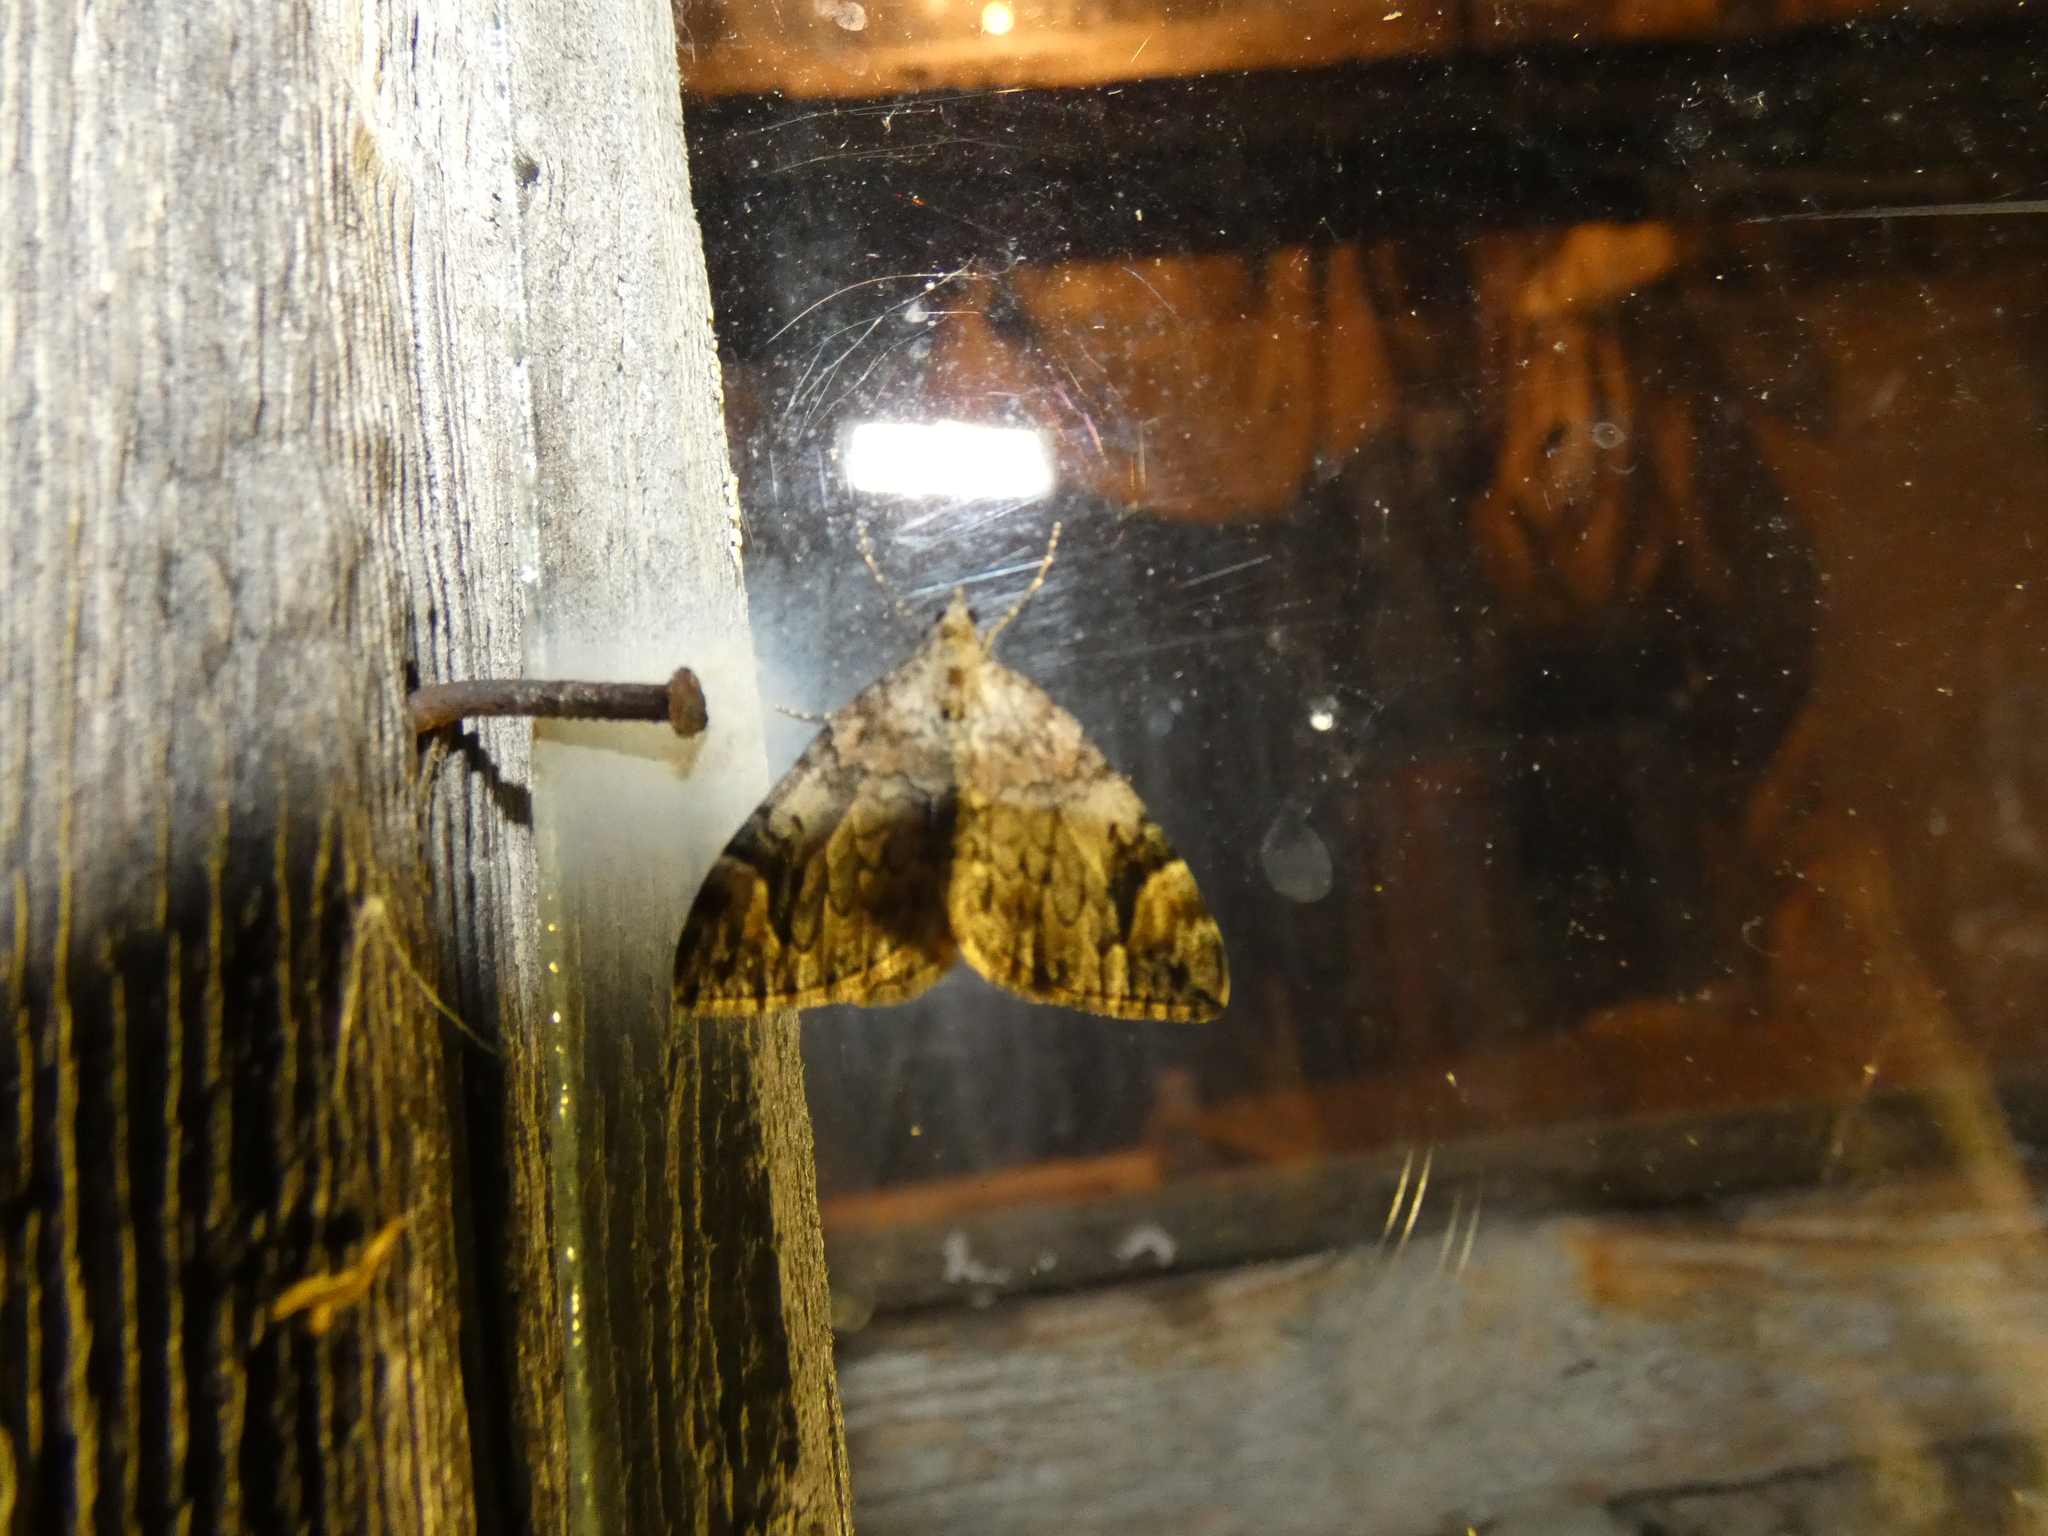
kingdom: Animalia
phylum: Arthropoda
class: Insecta
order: Lepidoptera
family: Geometridae
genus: Dysstroma
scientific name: Dysstroma citrata
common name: Dark marbled carpet
